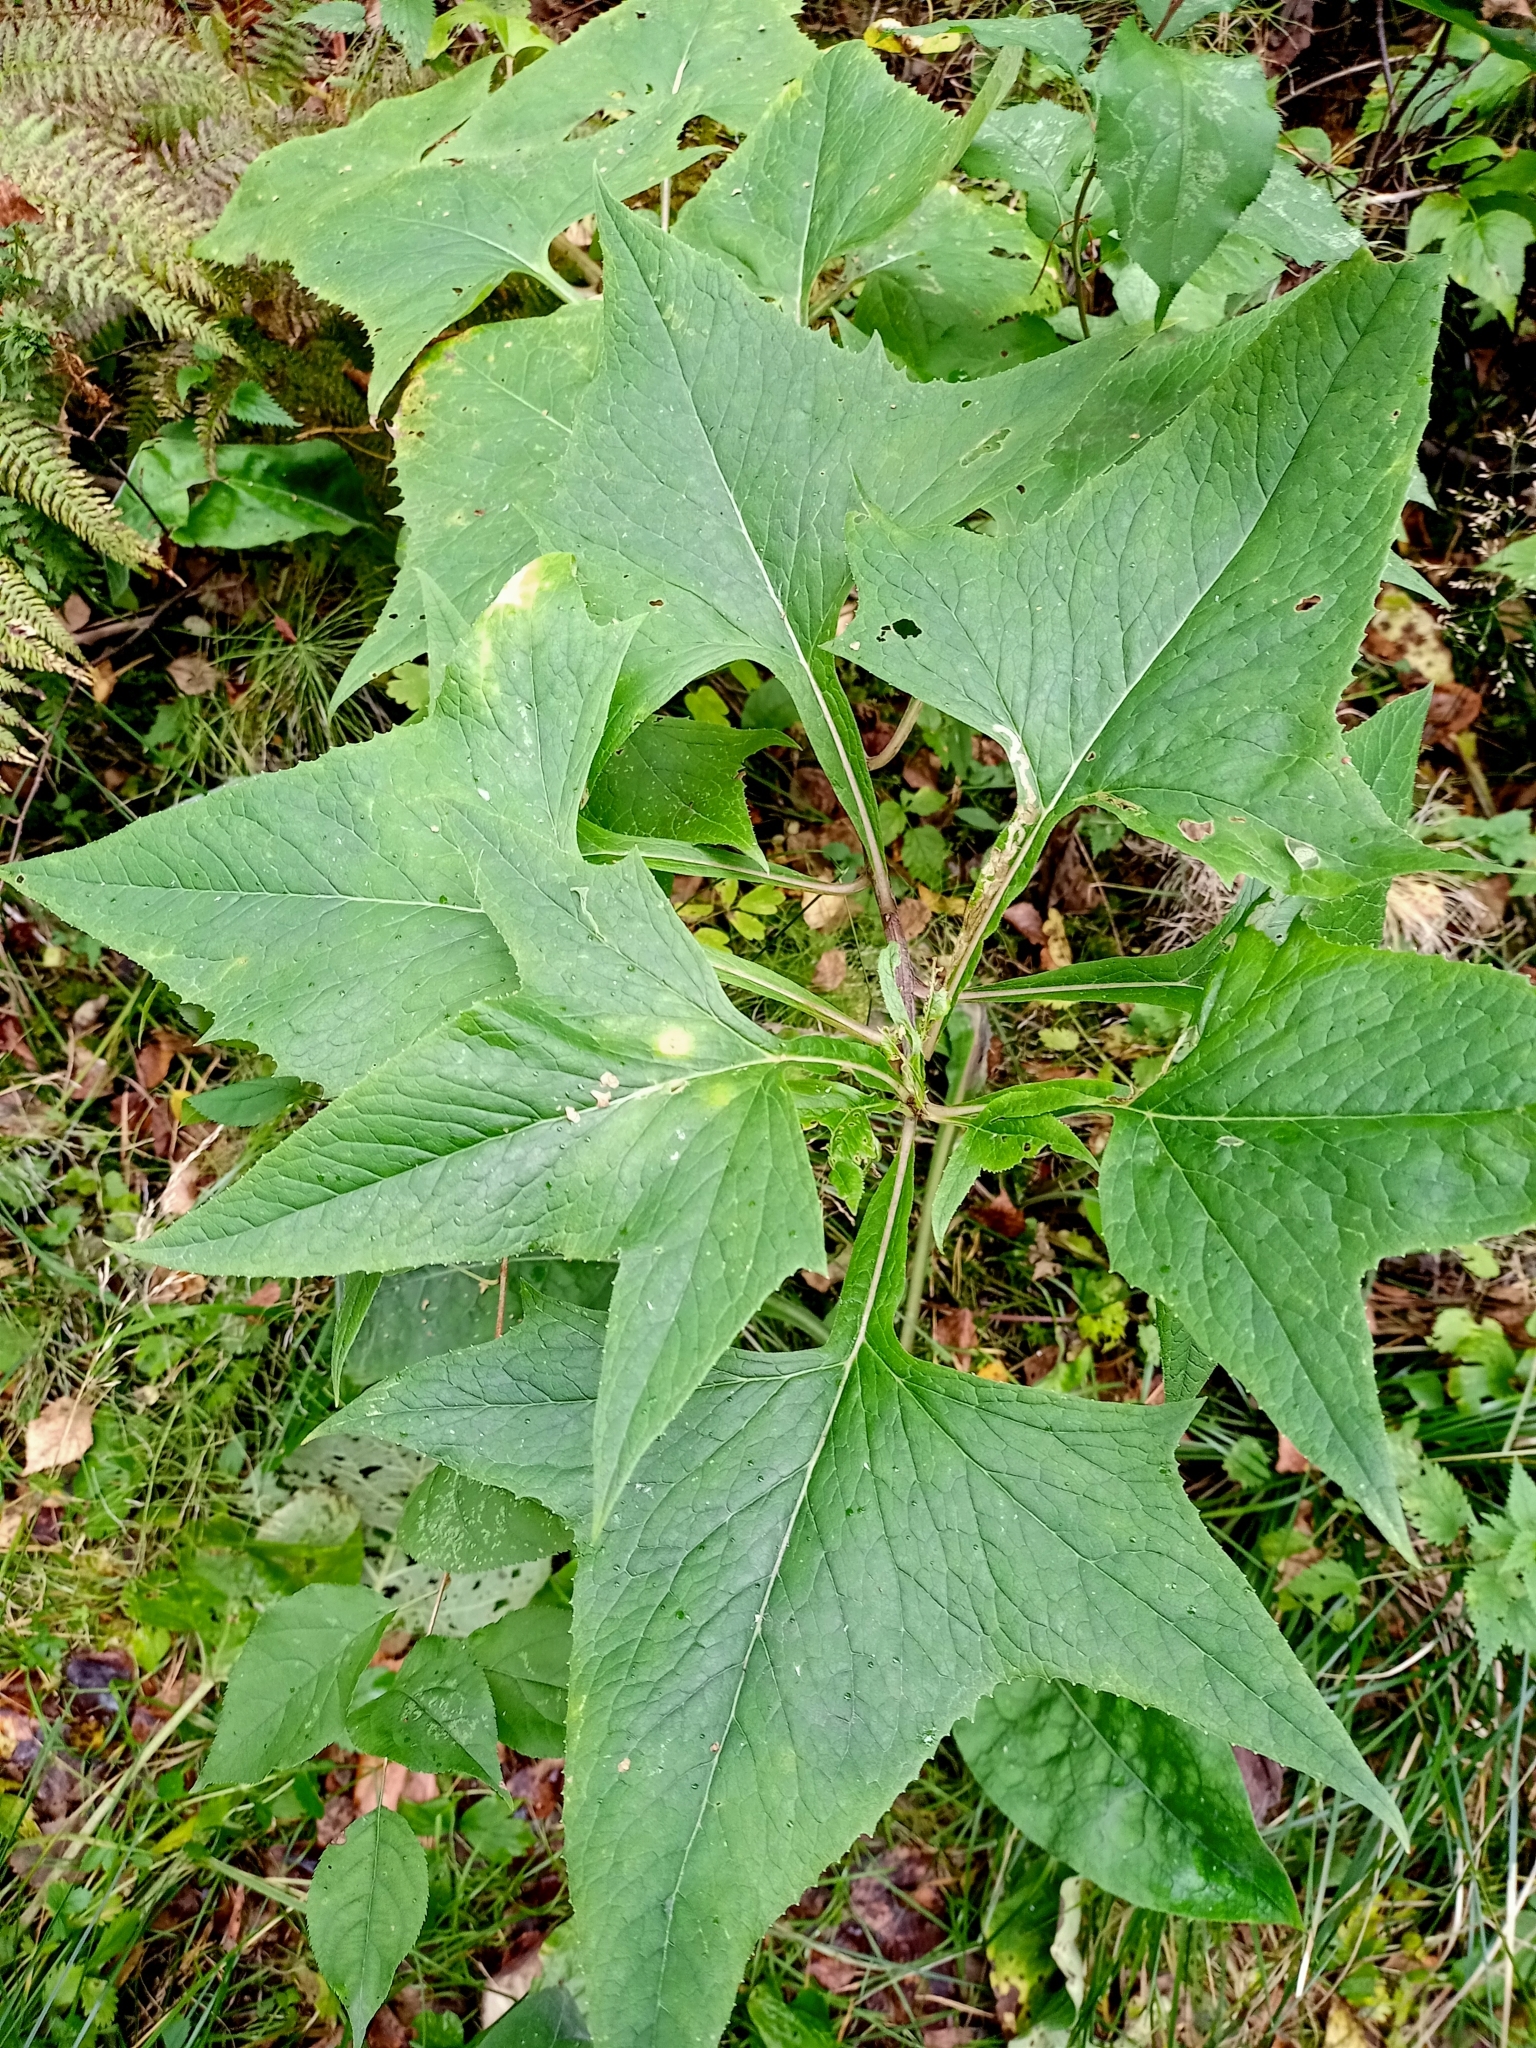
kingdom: Plantae
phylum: Tracheophyta
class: Magnoliopsida
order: Asterales
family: Asteraceae
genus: Parasenecio
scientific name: Parasenecio hastatus
